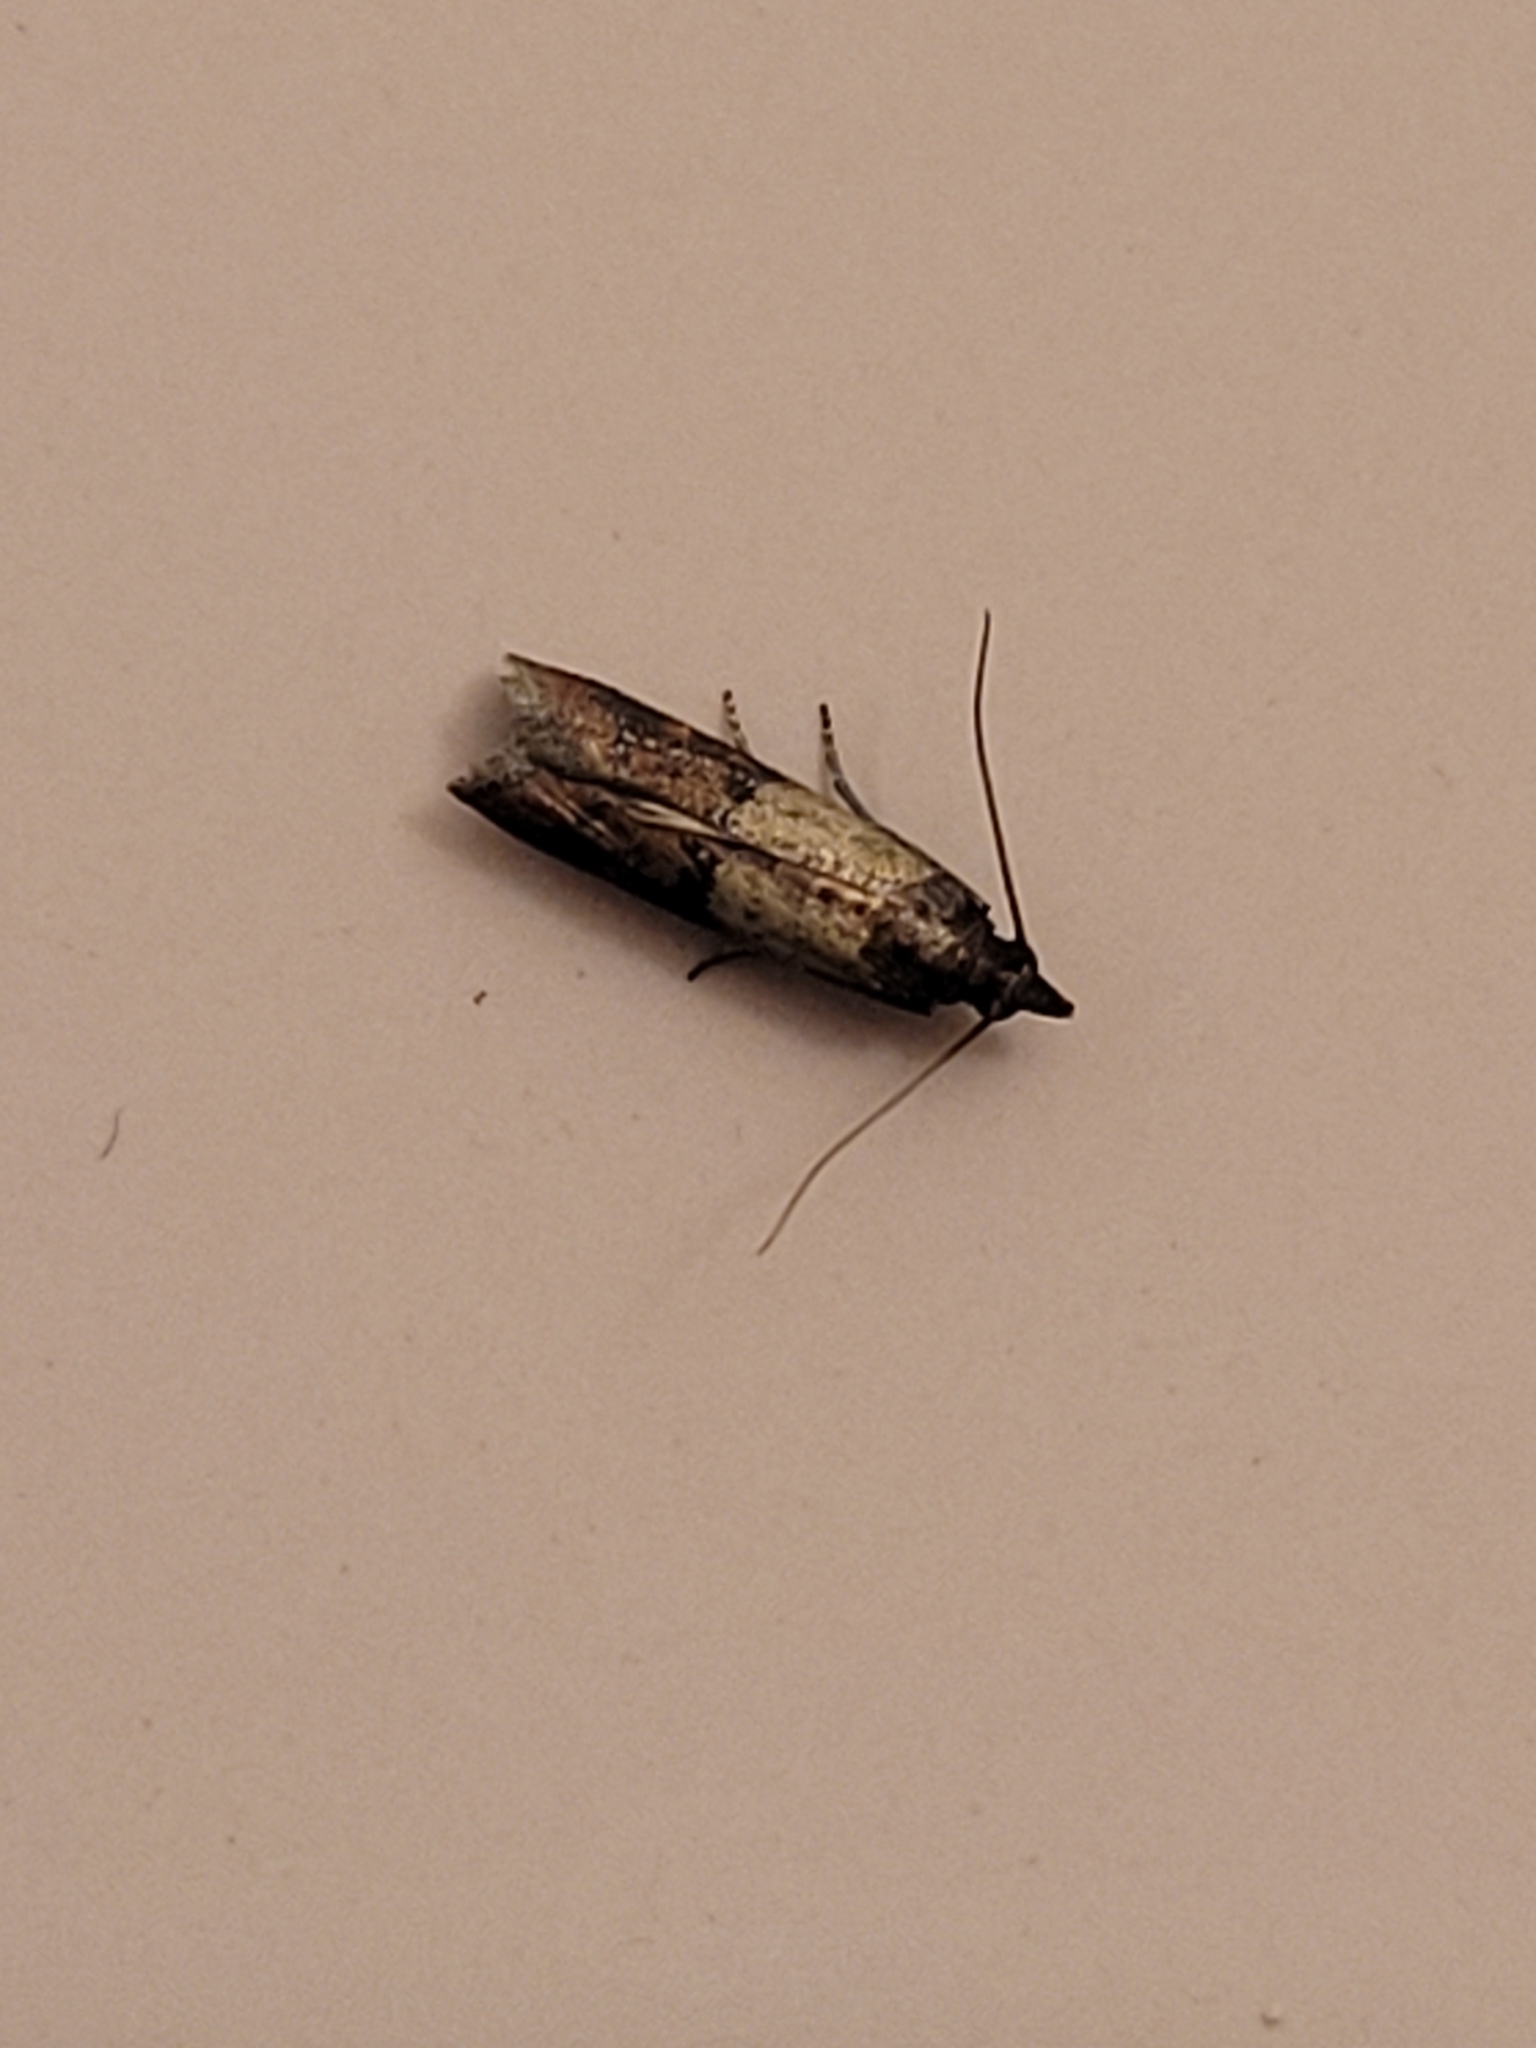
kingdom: Animalia
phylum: Arthropoda
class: Insecta
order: Lepidoptera
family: Pyralidae
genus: Plodia
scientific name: Plodia interpunctella
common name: Indian meal moth
